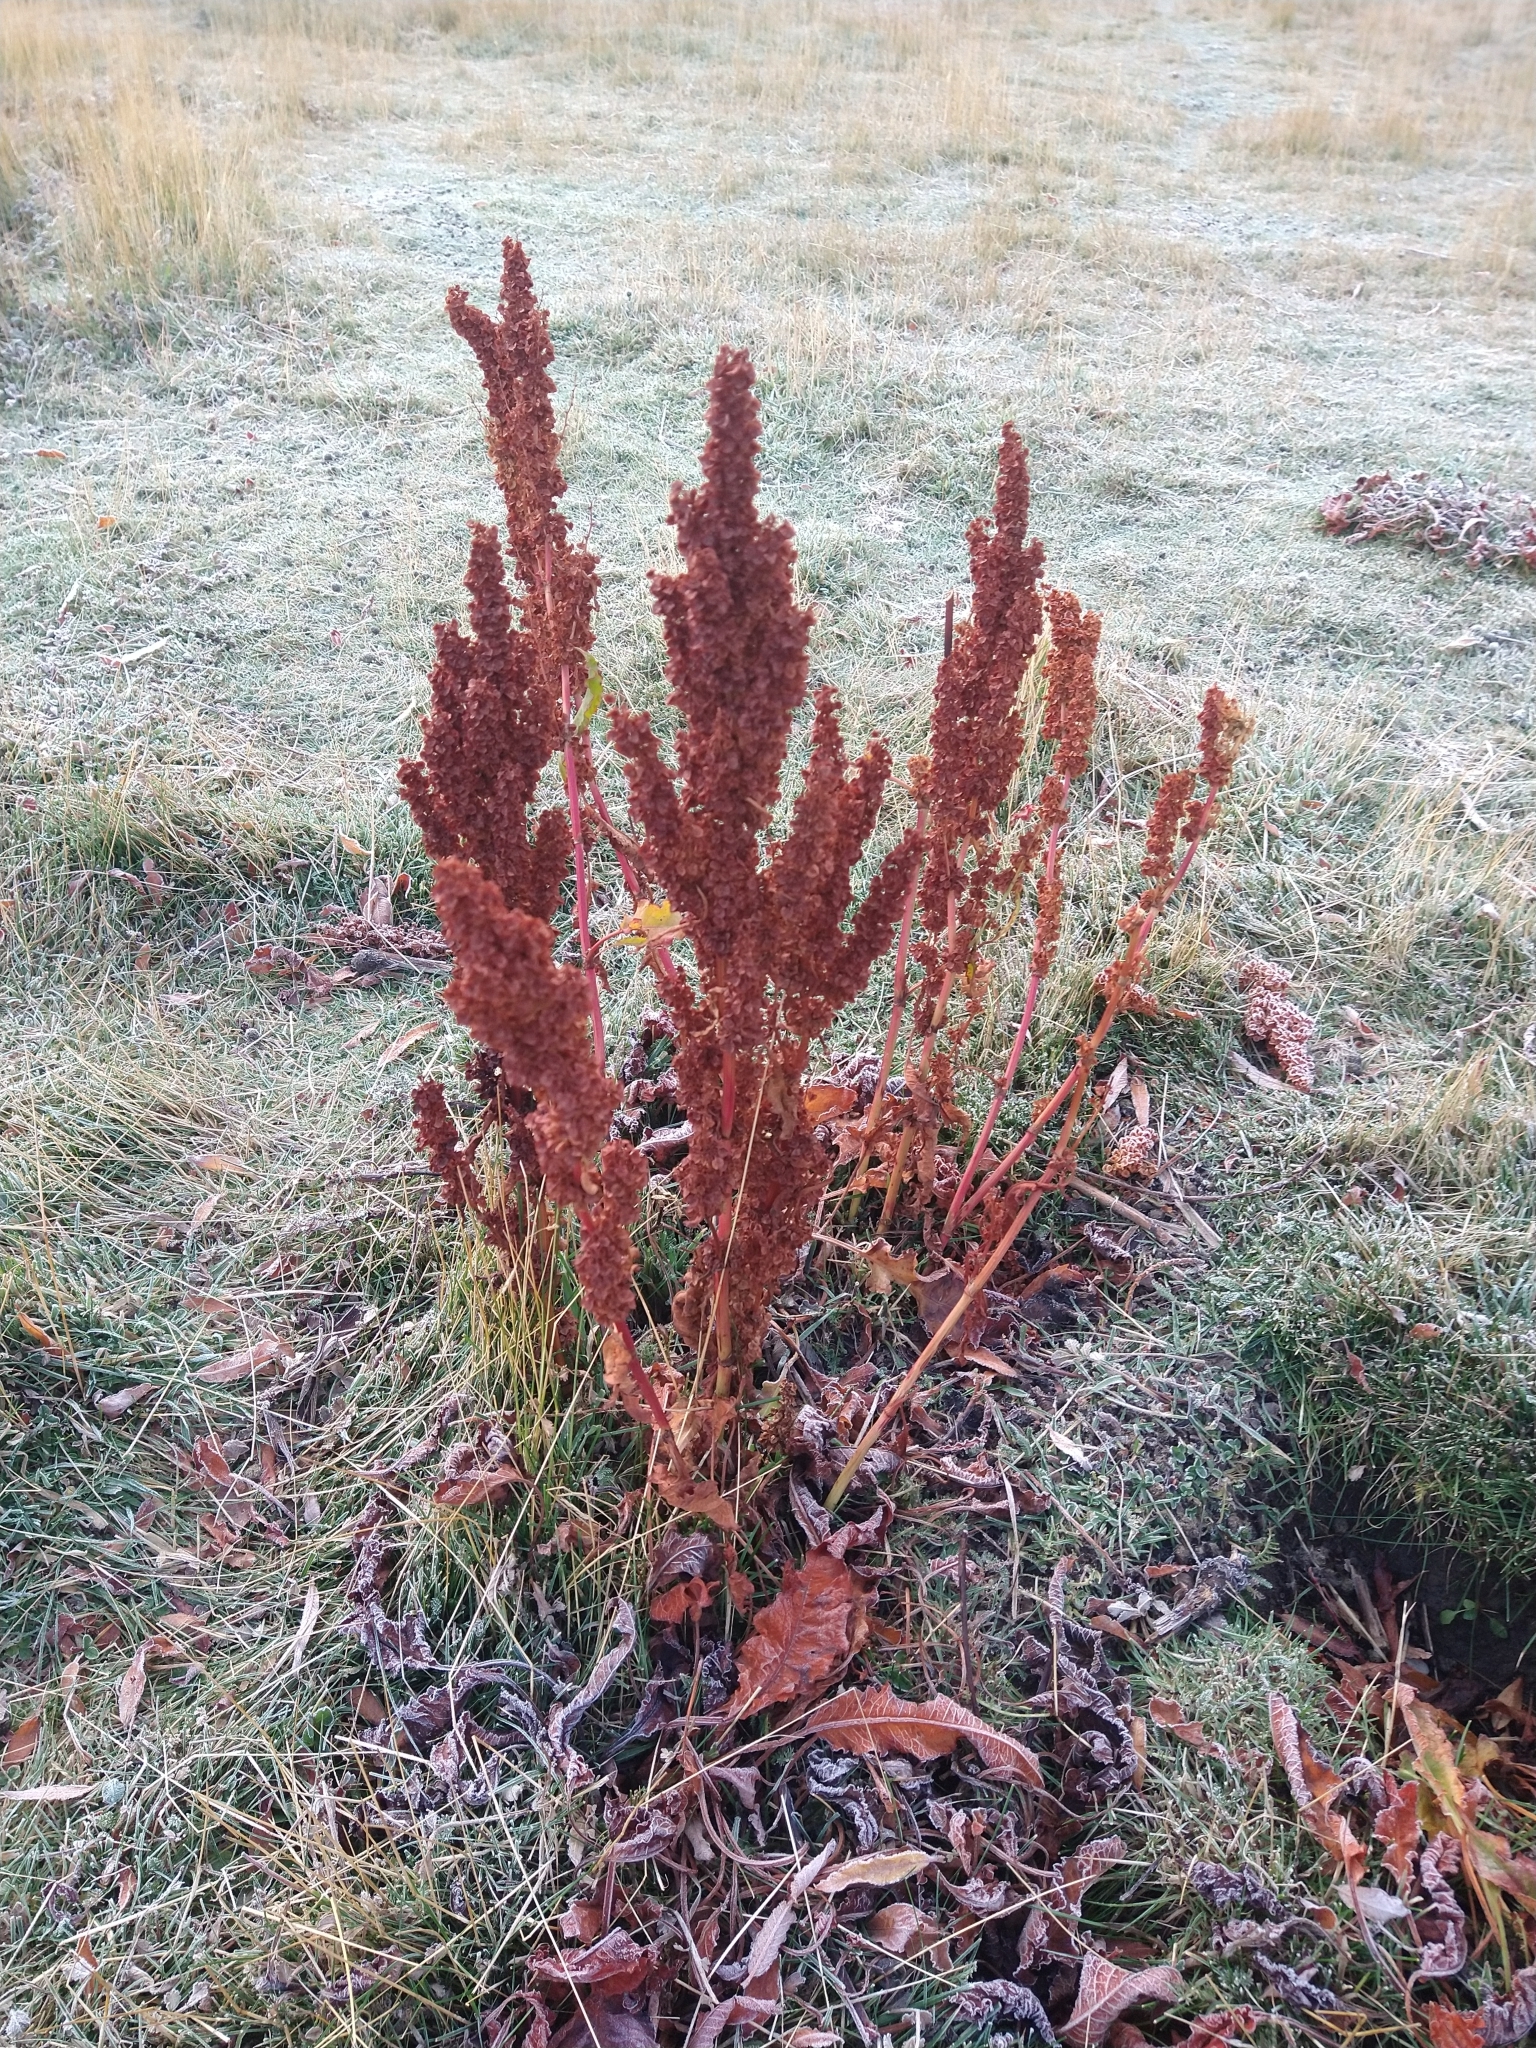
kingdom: Plantae
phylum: Tracheophyta
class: Magnoliopsida
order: Caryophyllales
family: Polygonaceae
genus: Rumex
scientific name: Rumex crispus
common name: Curled dock
